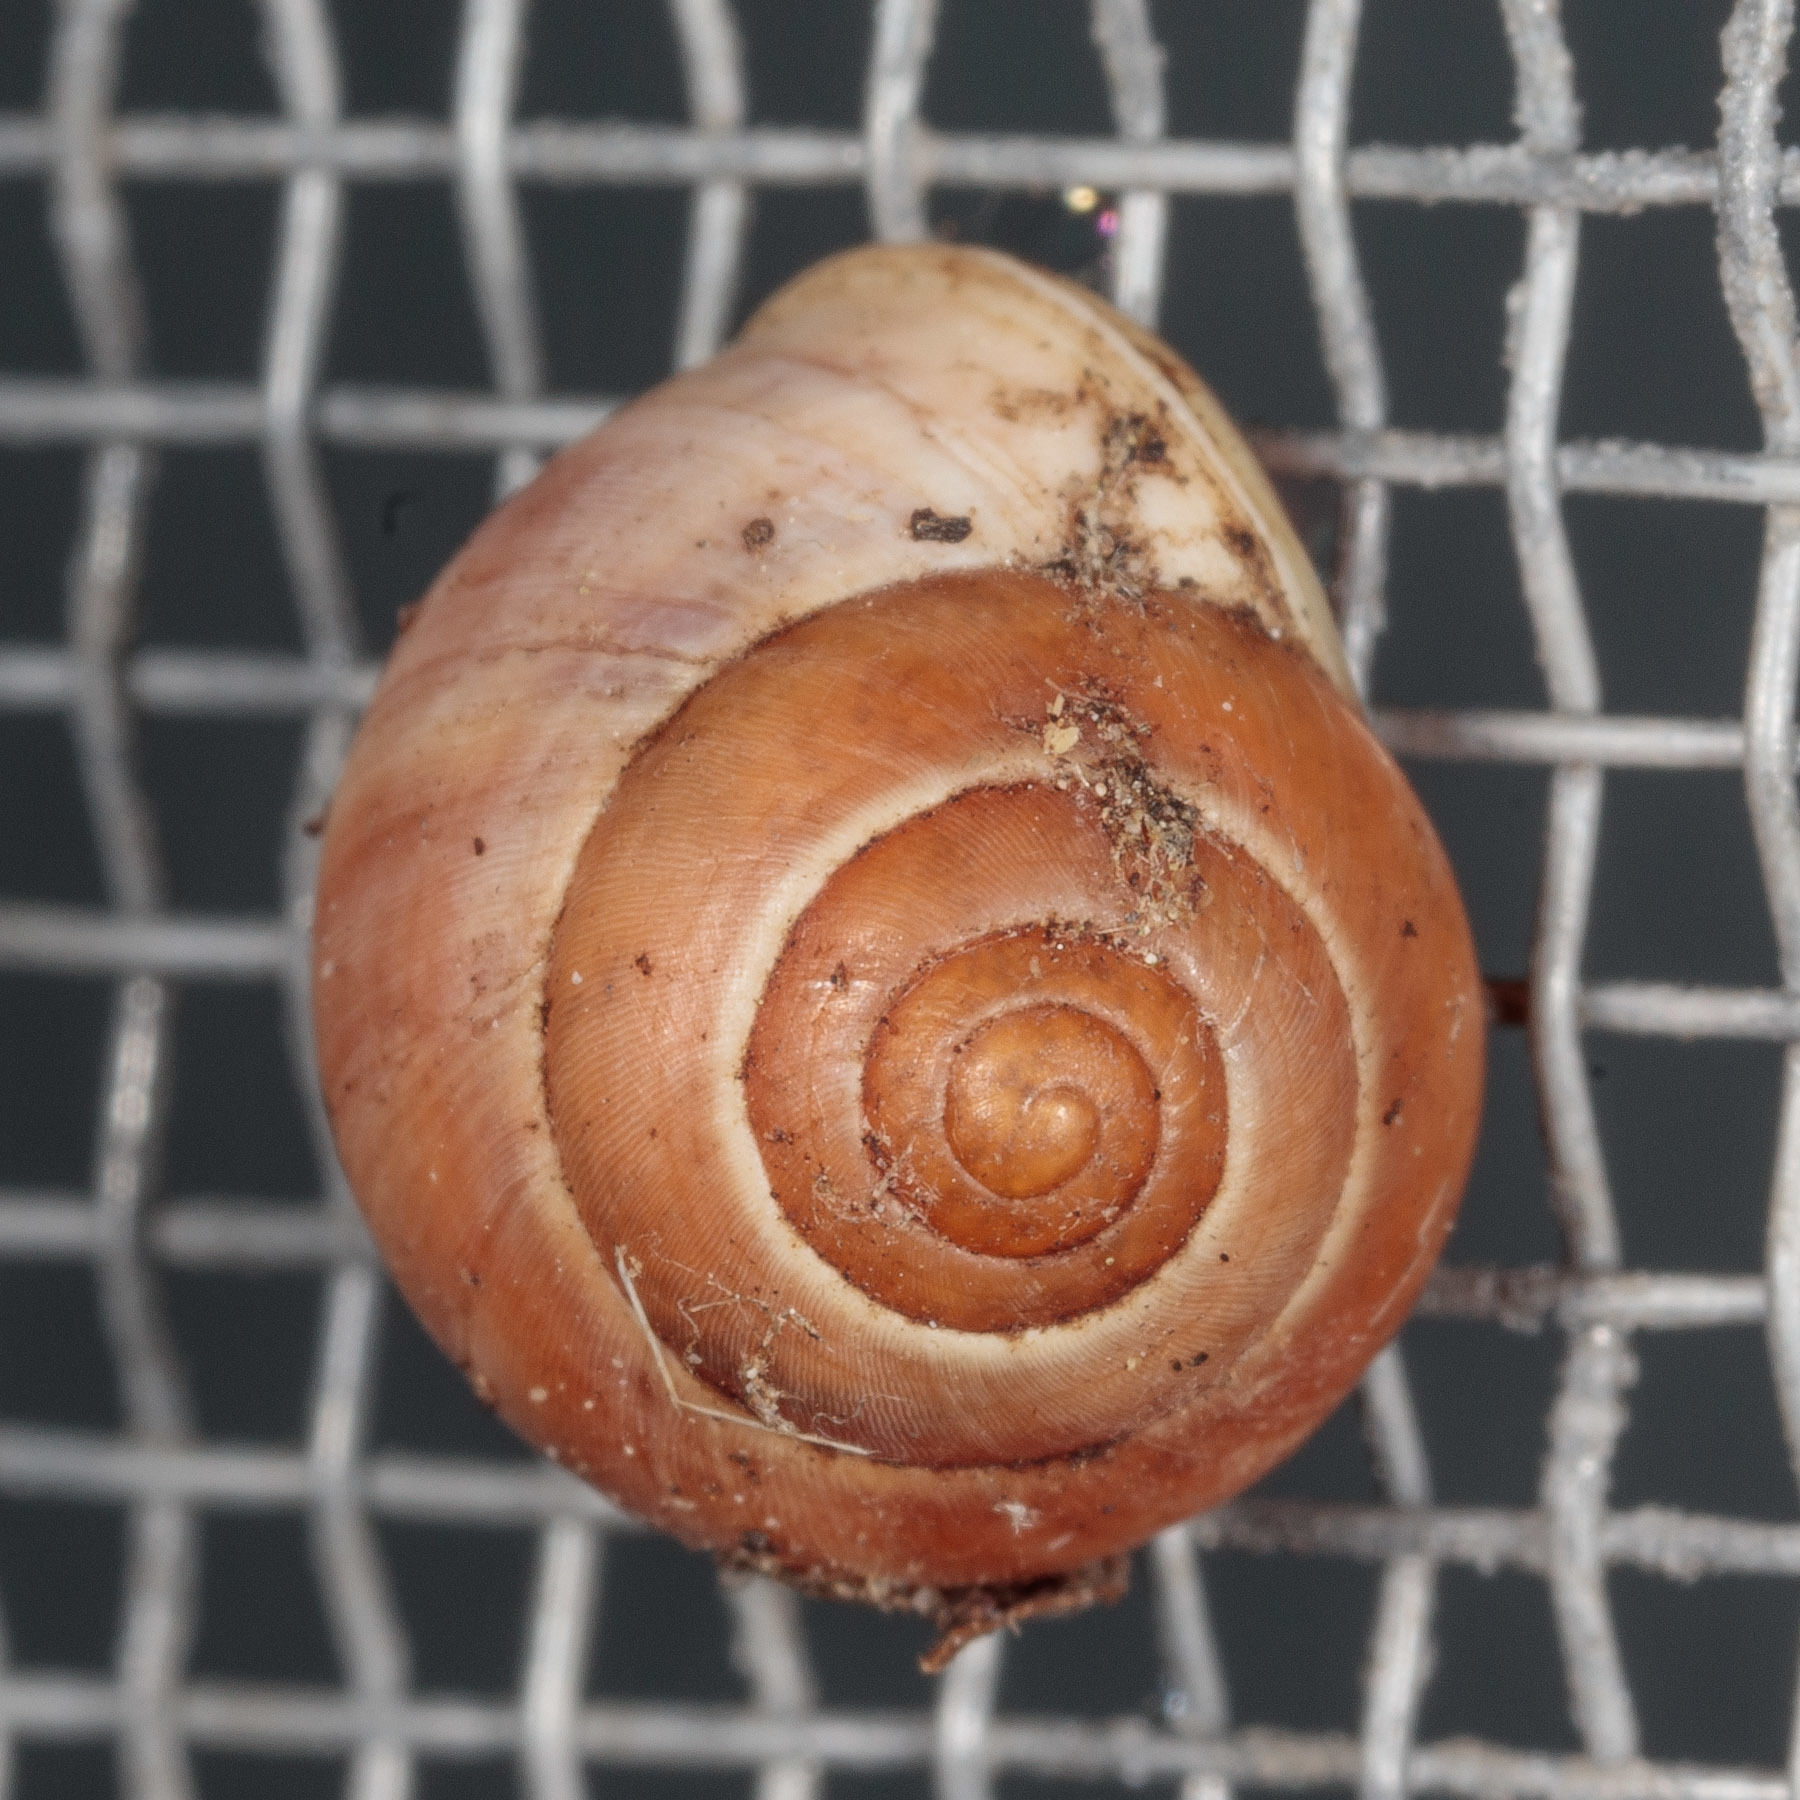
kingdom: Animalia
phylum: Mollusca
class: Gastropoda
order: Cycloneritida
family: Helicinidae
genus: Helicina
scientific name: Helicina orbiculata
